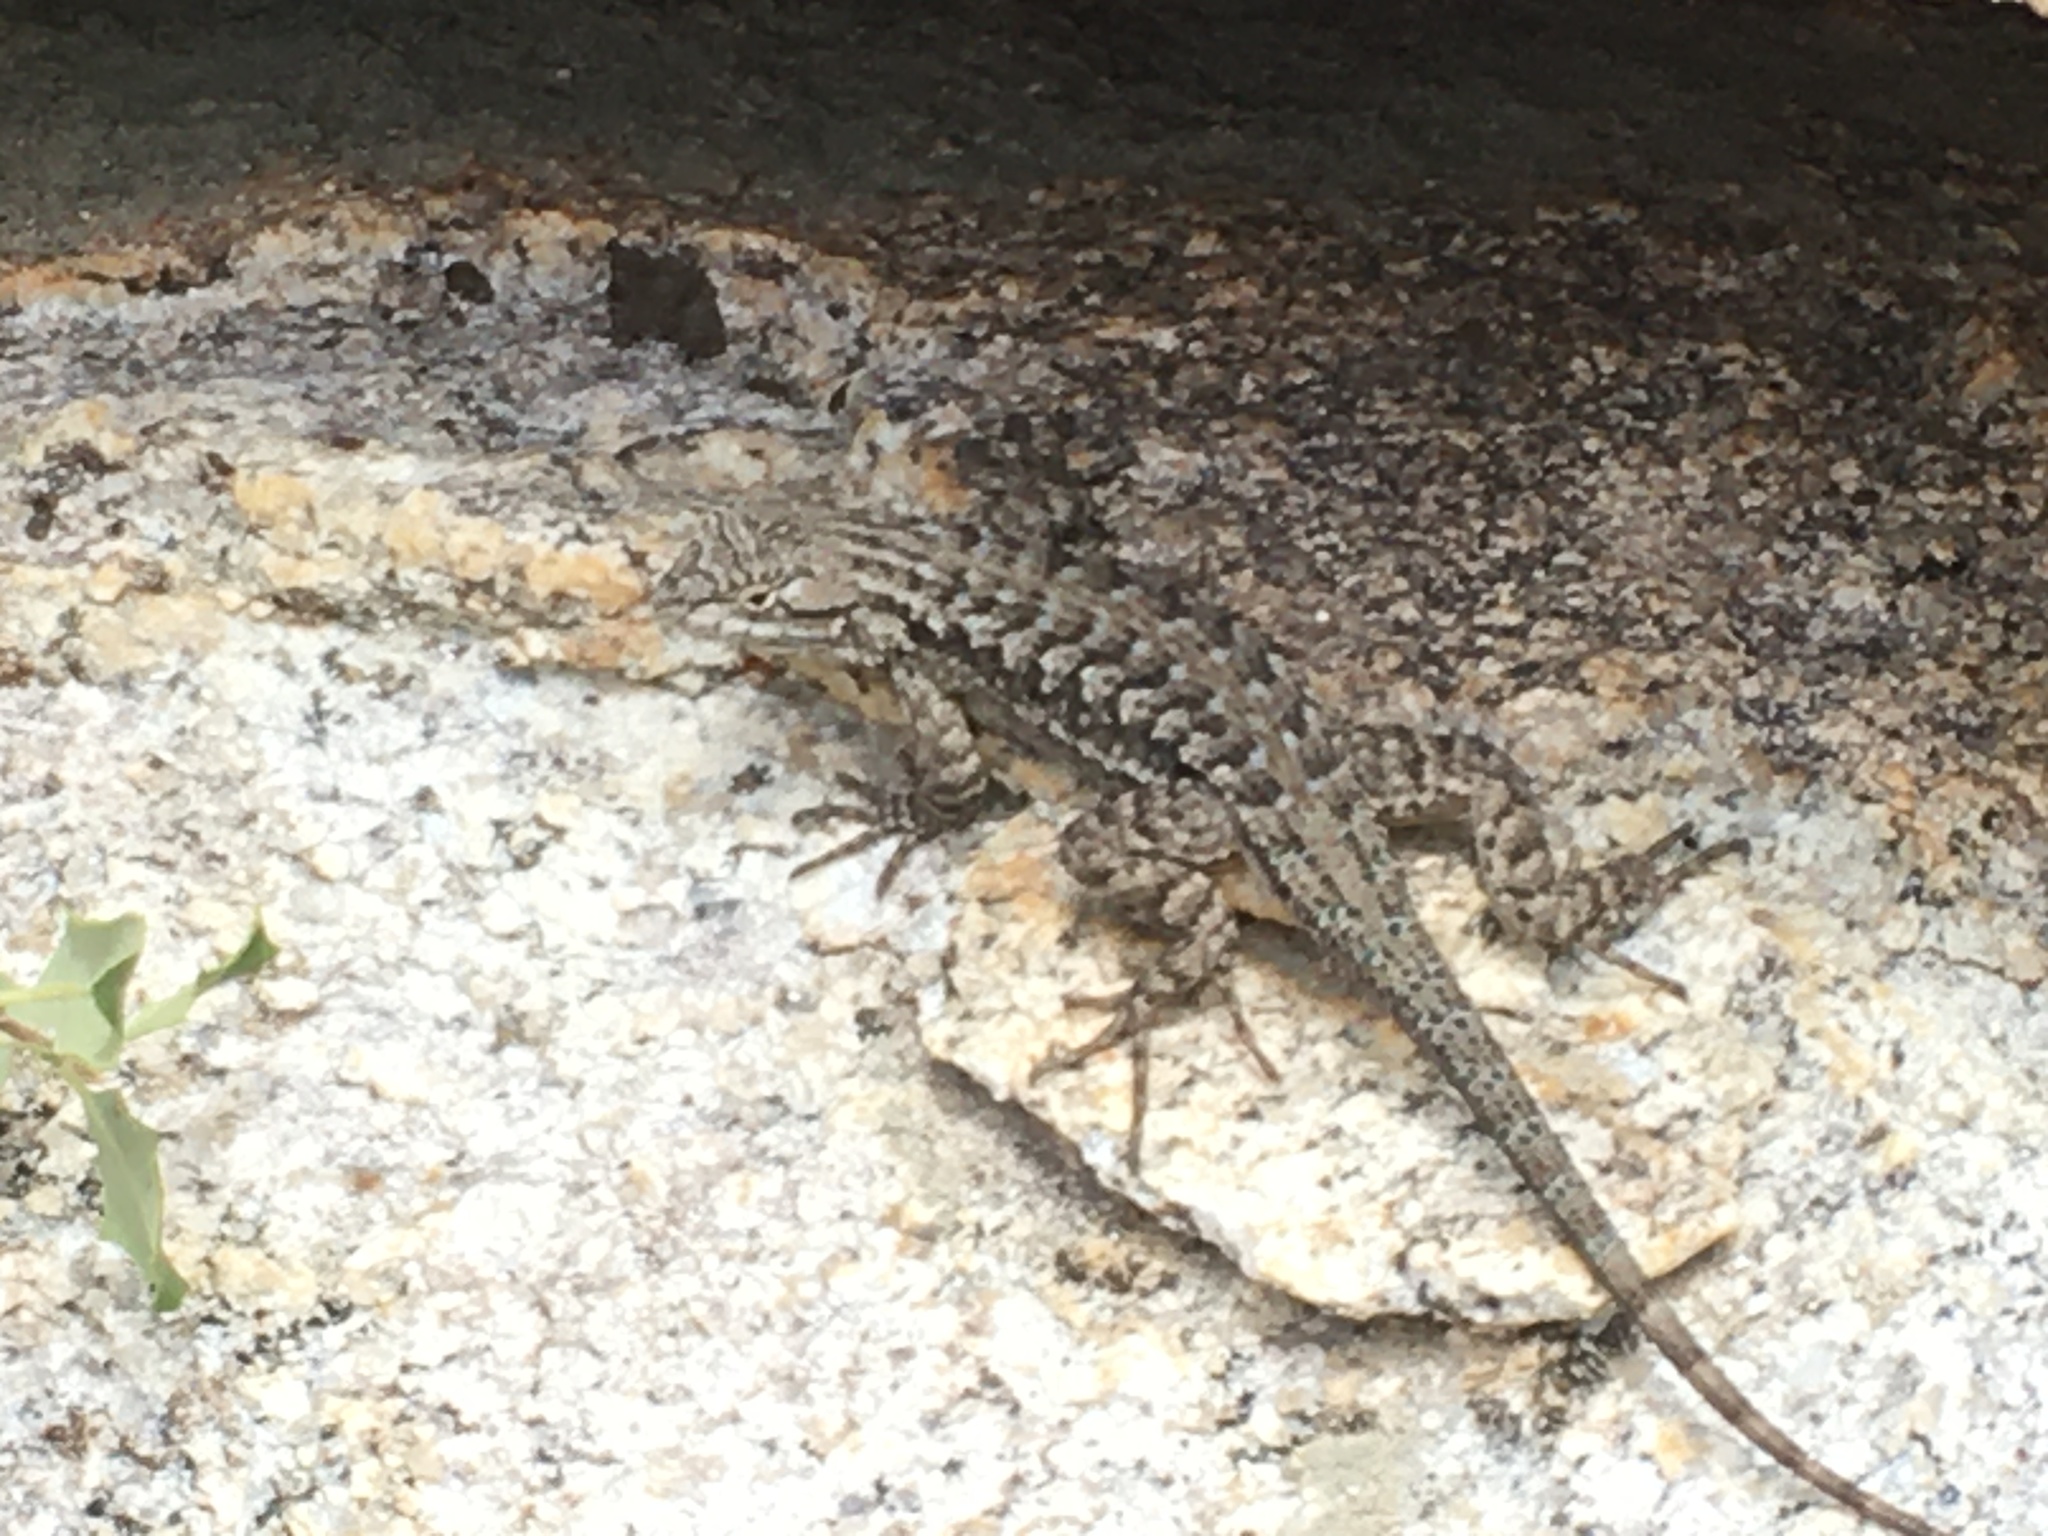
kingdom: Animalia
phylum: Chordata
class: Squamata
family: Phrynosomatidae
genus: Sceloporus
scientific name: Sceloporus occidentalis
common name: Western fence lizard
